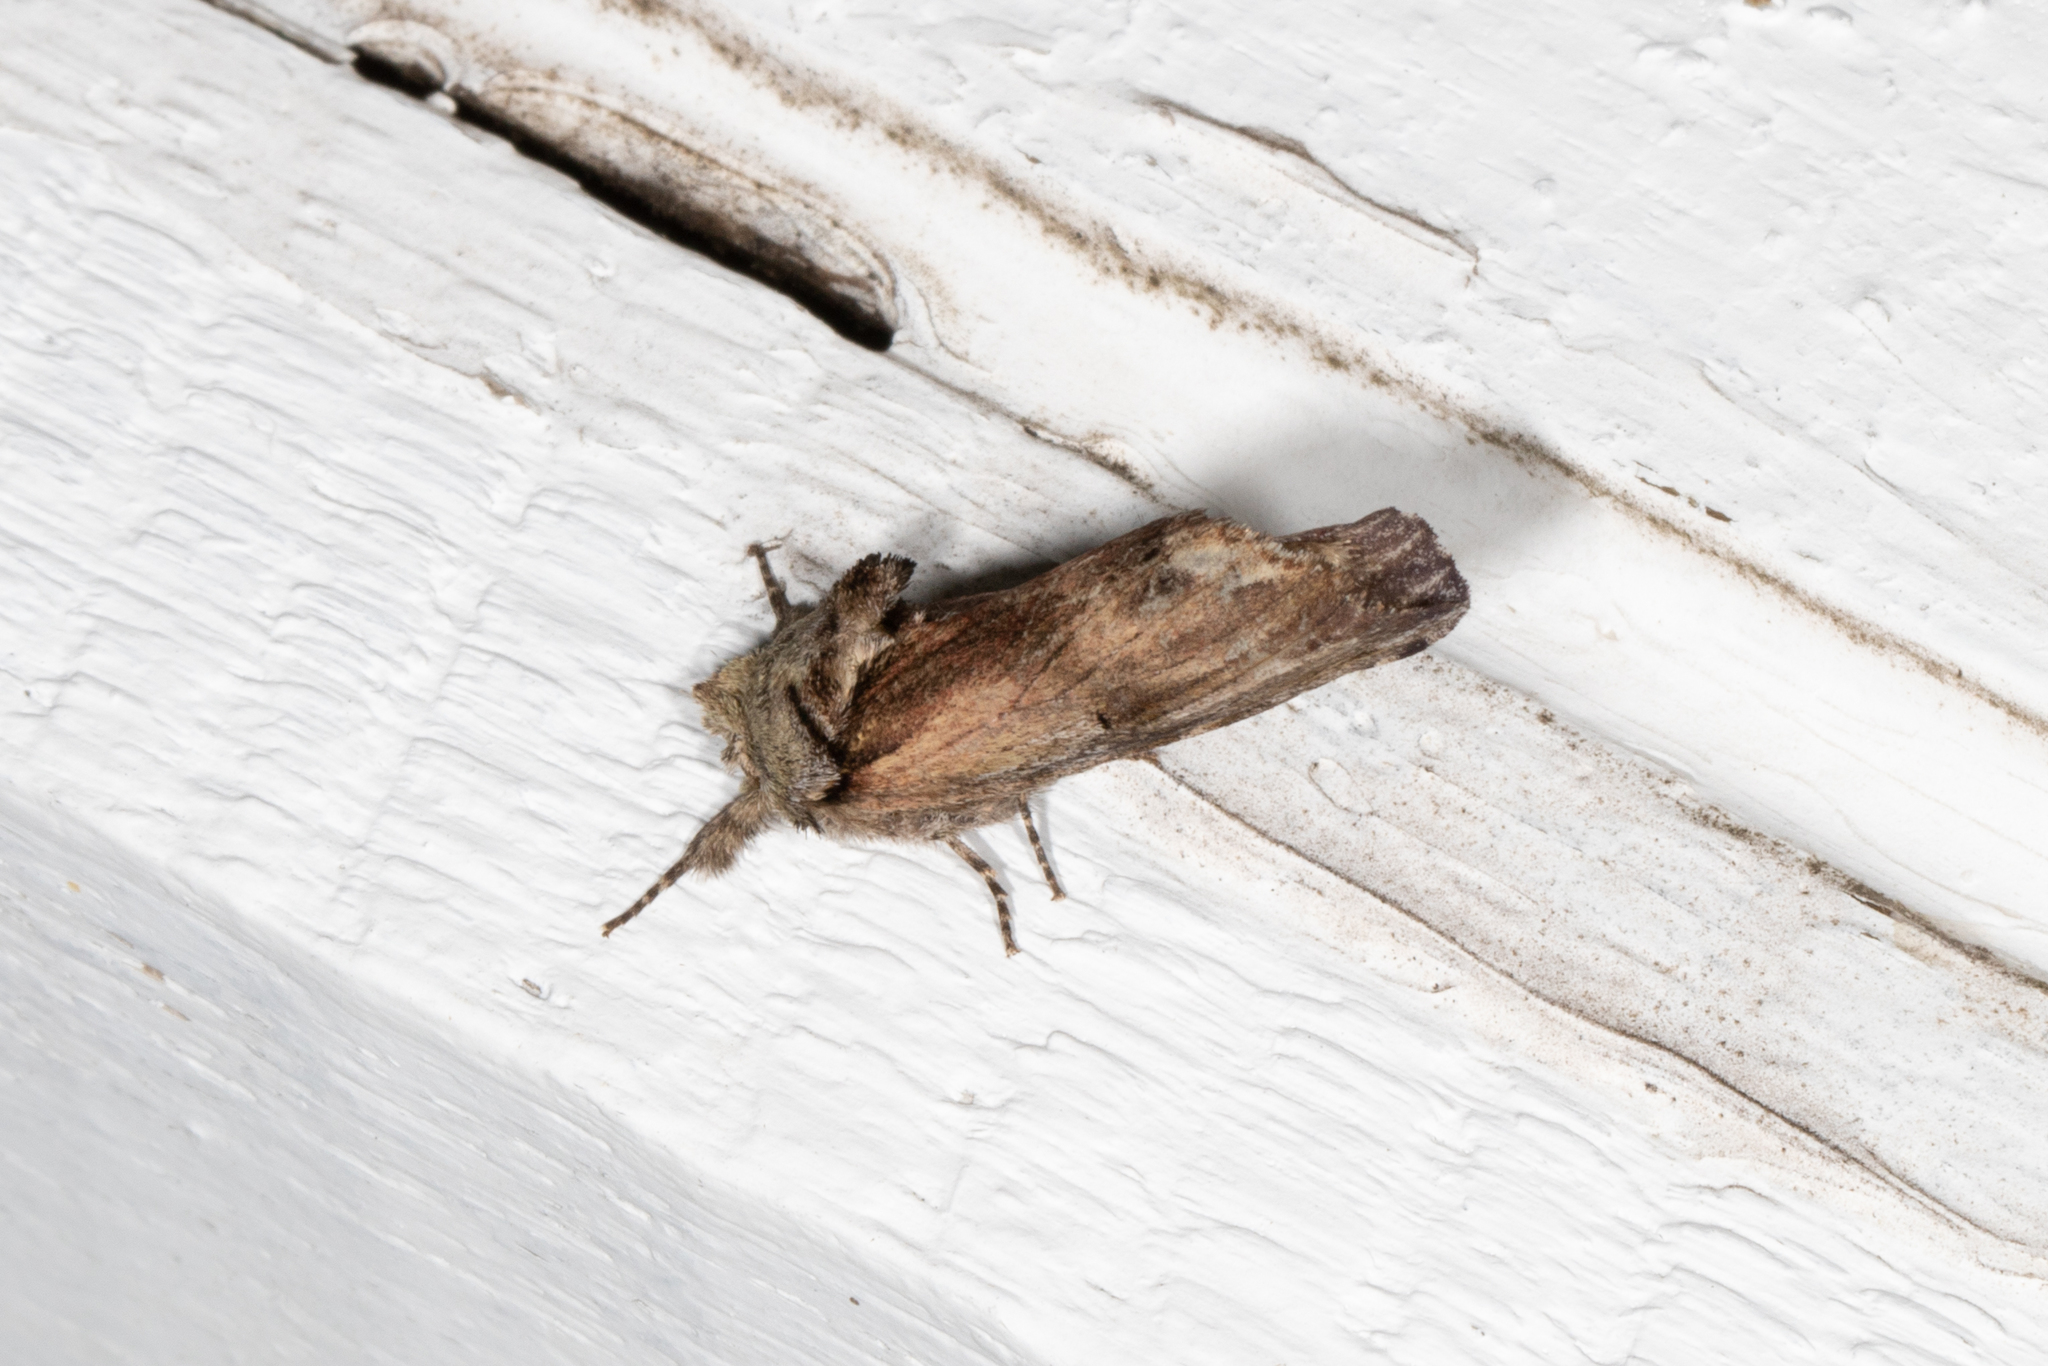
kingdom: Animalia
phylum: Arthropoda
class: Insecta
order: Lepidoptera
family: Notodontidae
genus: Schizura
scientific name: Schizura
